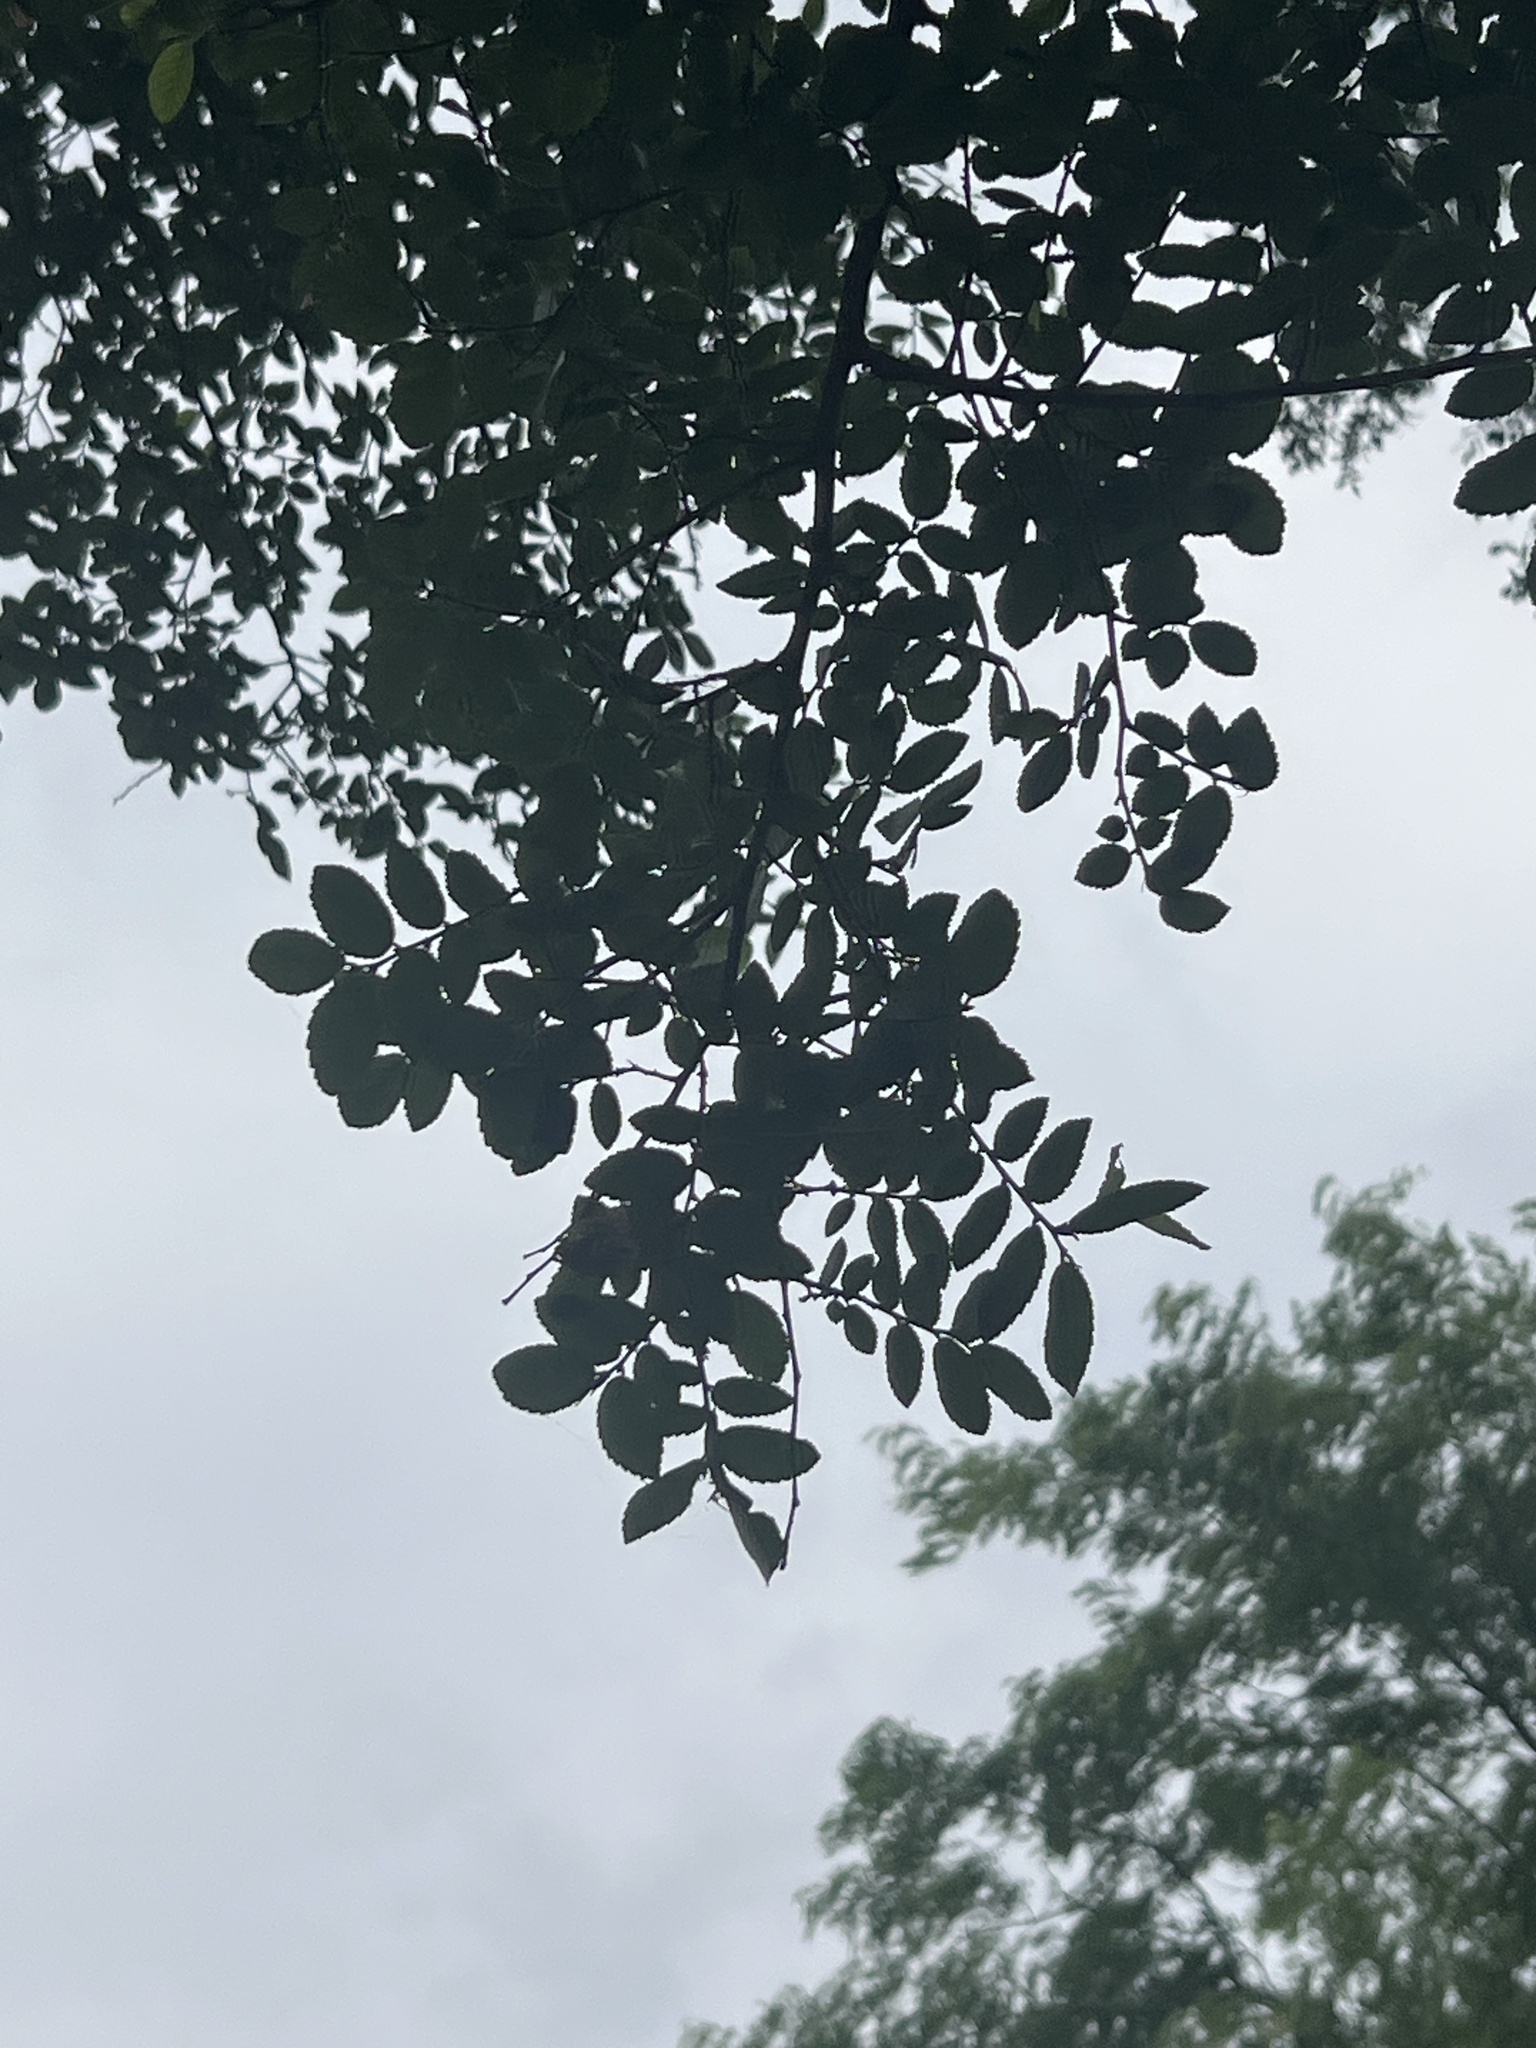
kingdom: Plantae
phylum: Tracheophyta
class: Magnoliopsida
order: Rosales
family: Ulmaceae
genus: Ulmus
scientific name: Ulmus crassifolia
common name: Basket elm
